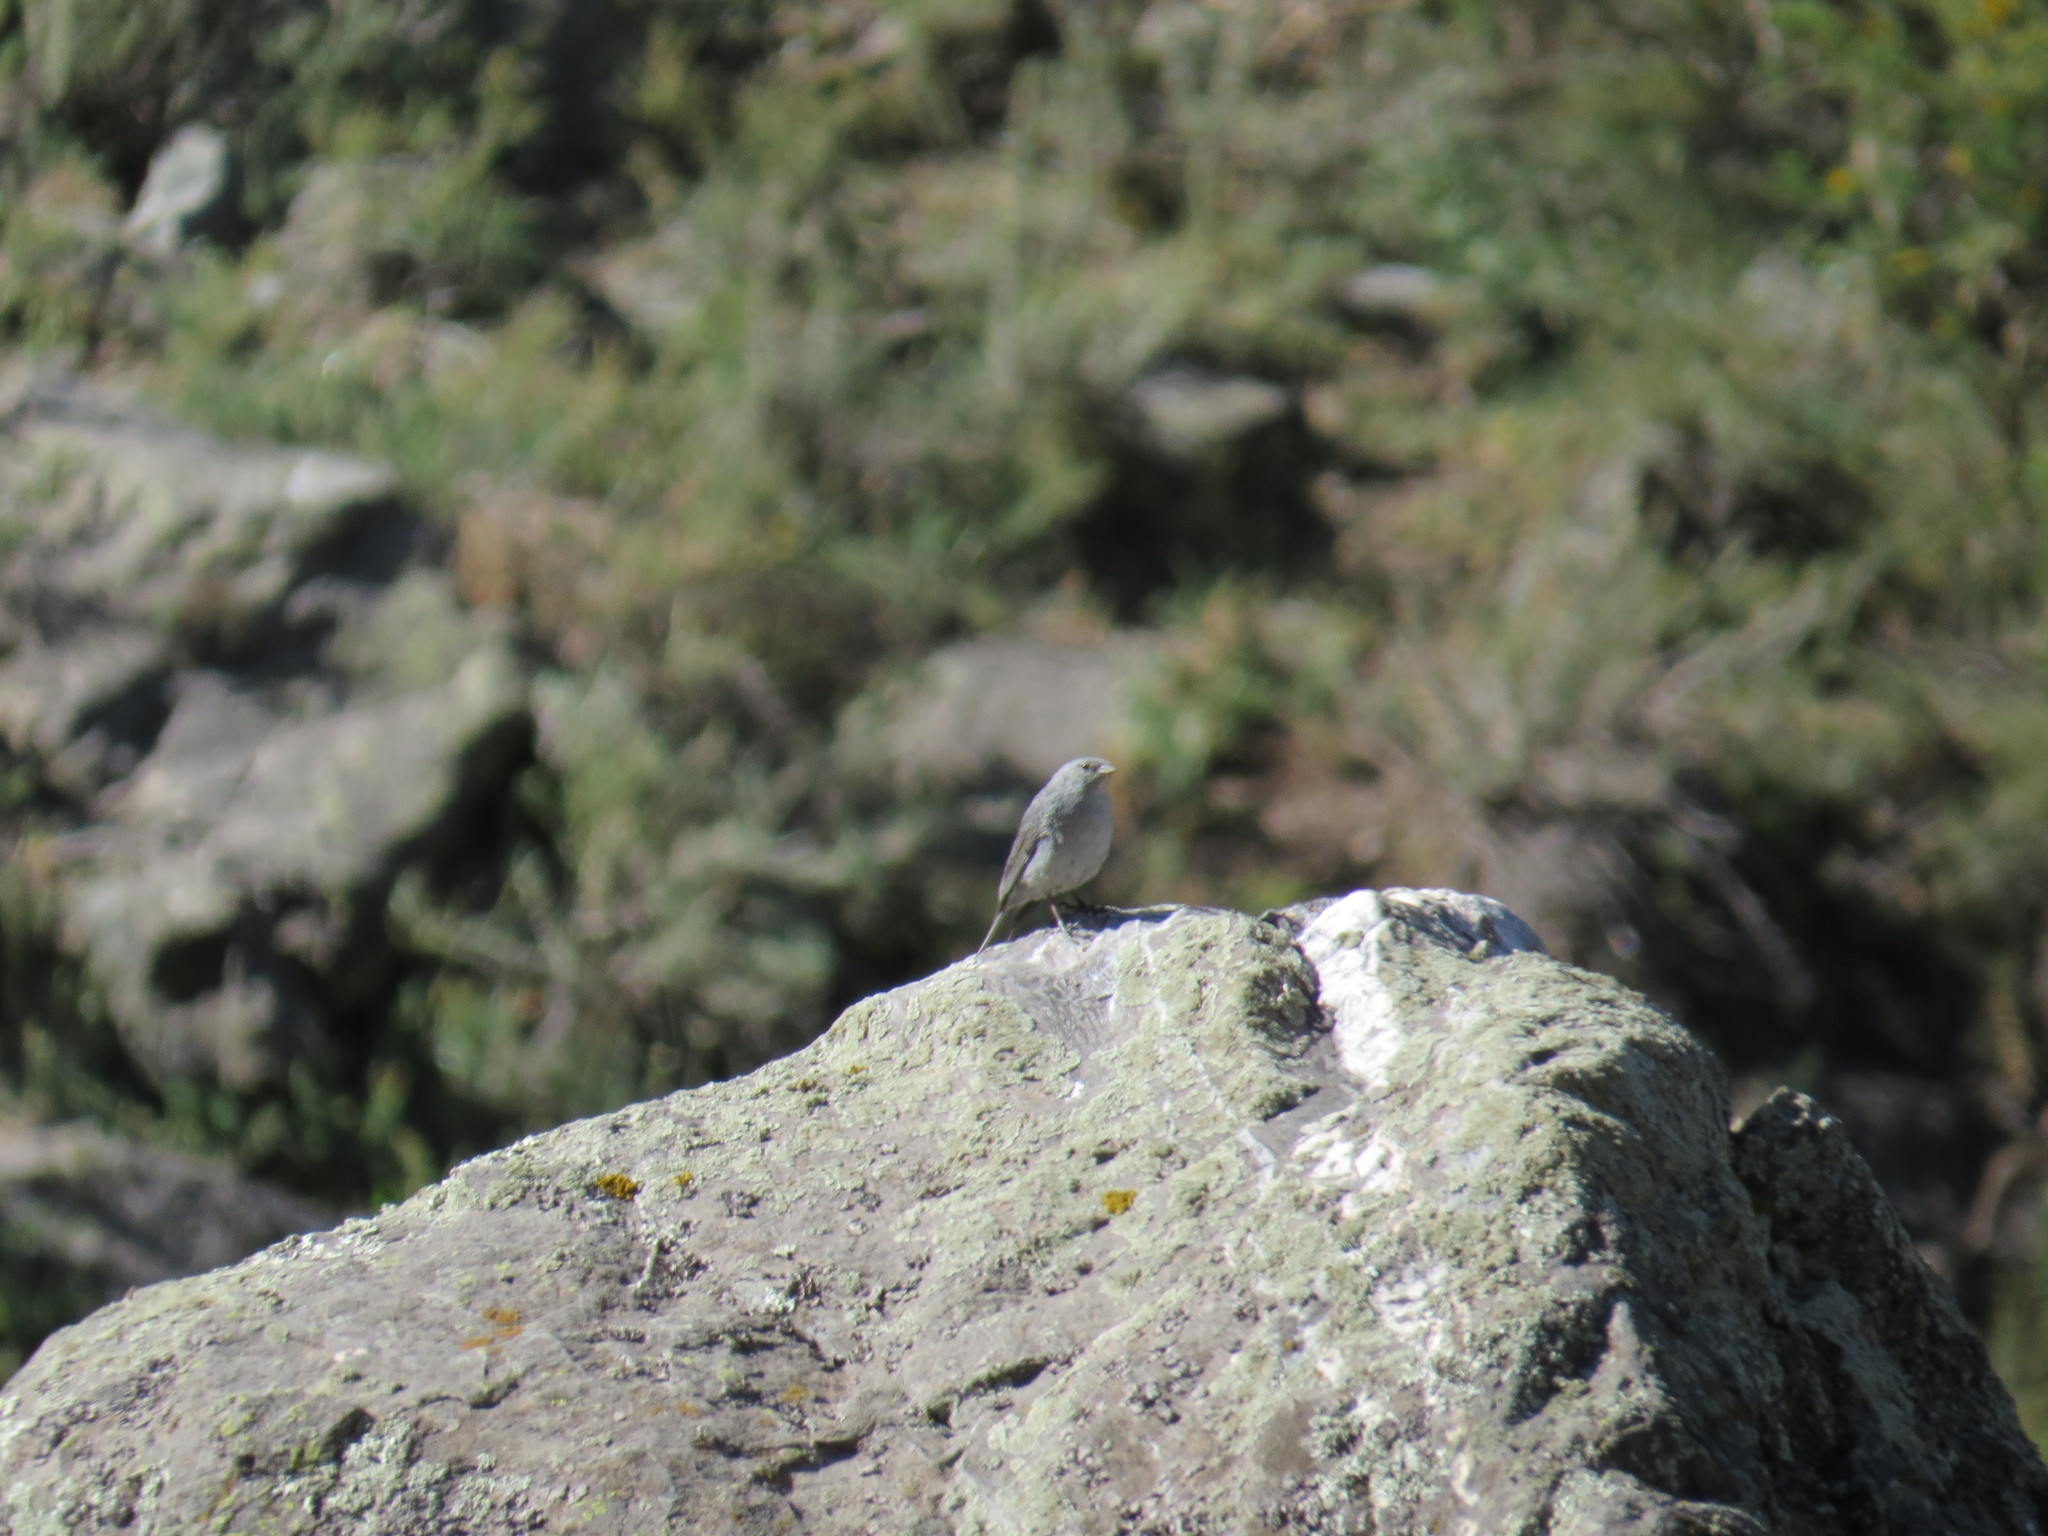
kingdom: Animalia
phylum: Chordata
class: Aves
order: Passeriformes
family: Thraupidae
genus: Geospizopsis
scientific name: Geospizopsis unicolor
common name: Plumbeous sierra-finch
